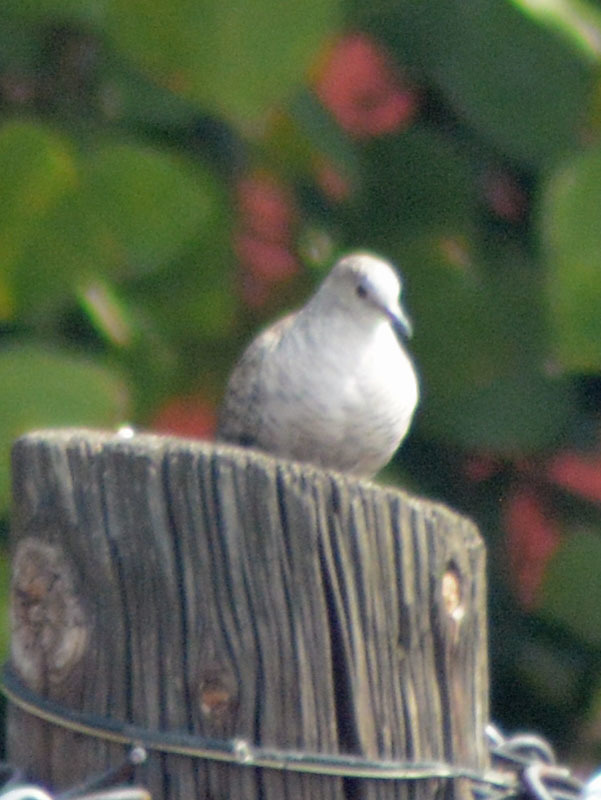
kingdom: Animalia
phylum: Chordata
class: Aves
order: Columbiformes
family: Columbidae
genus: Columbina
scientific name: Columbina inca
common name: Inca dove
